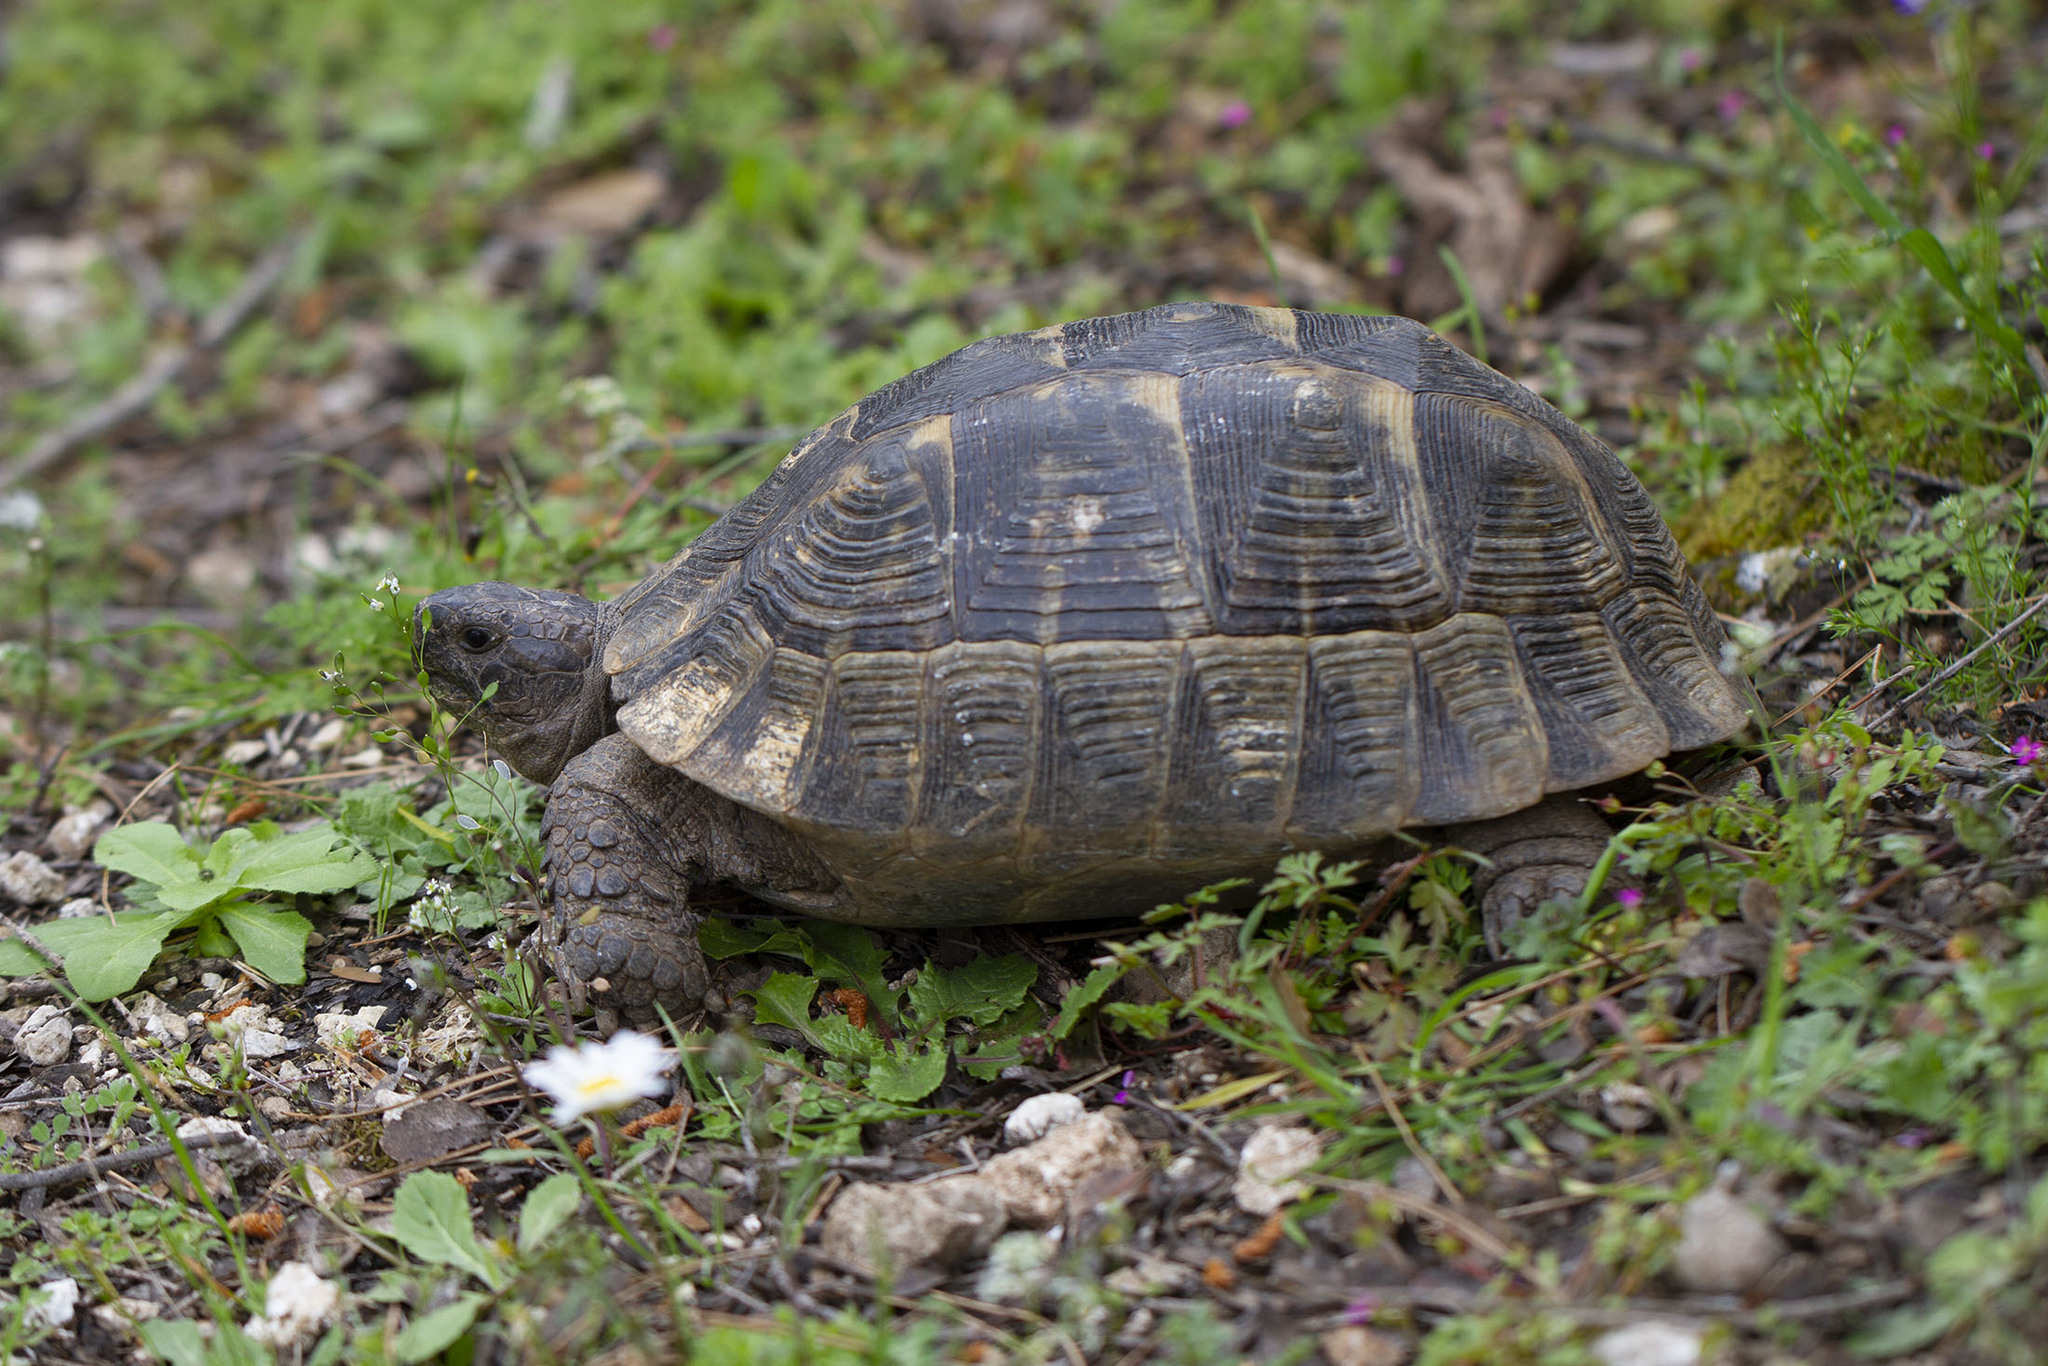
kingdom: Animalia
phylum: Chordata
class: Testudines
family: Testudinidae
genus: Testudo
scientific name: Testudo graeca
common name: Common tortoise
